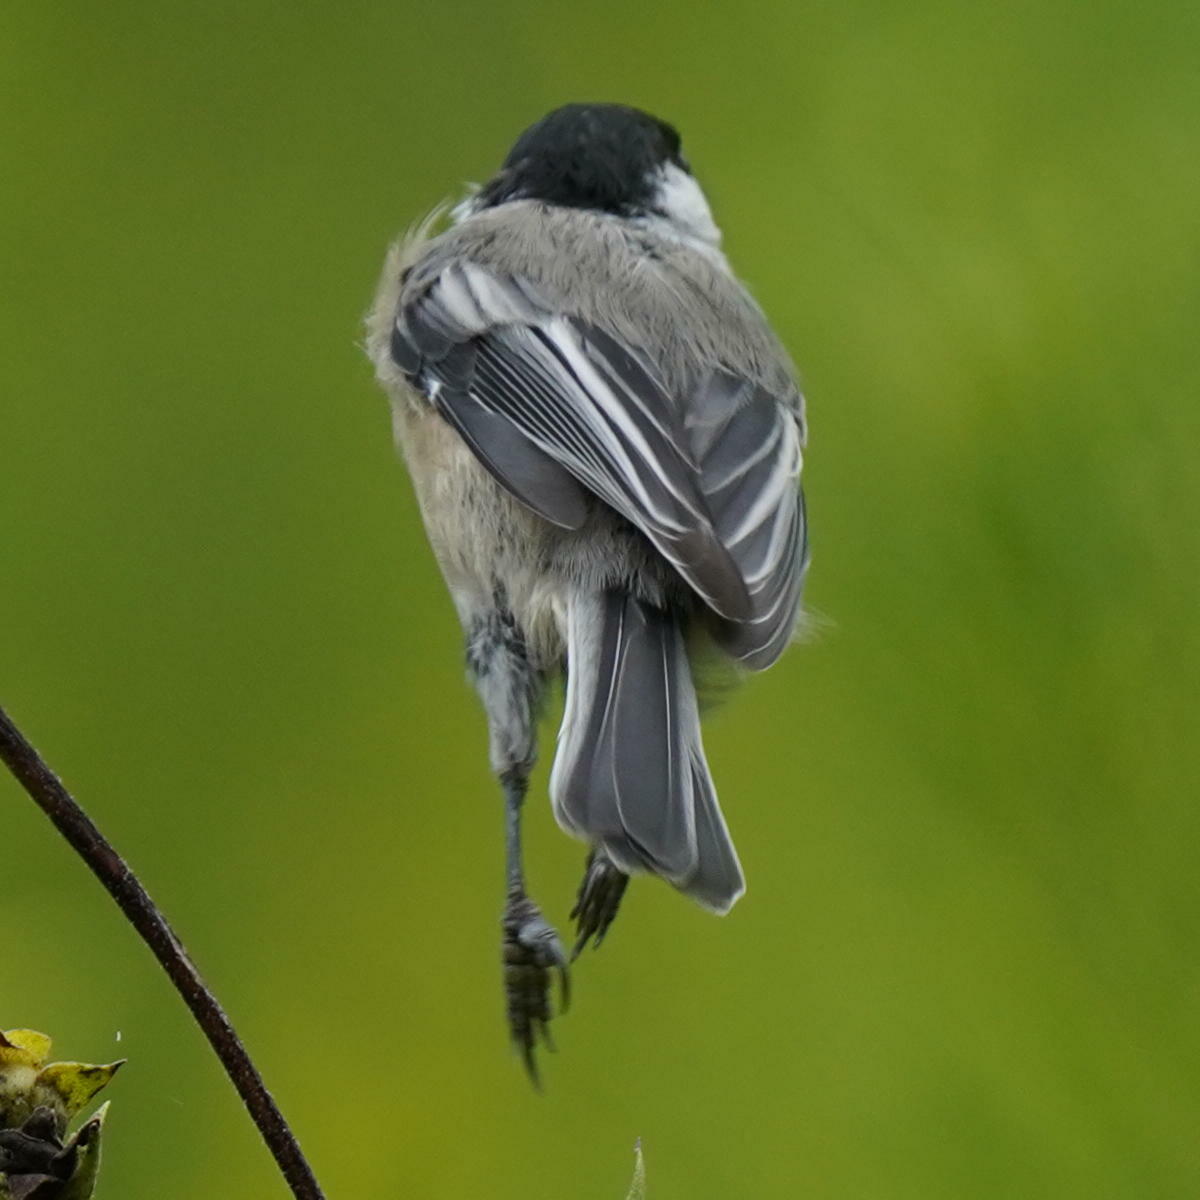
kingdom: Animalia
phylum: Chordata
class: Aves
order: Passeriformes
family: Paridae
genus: Poecile
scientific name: Poecile atricapillus
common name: Black-capped chickadee
